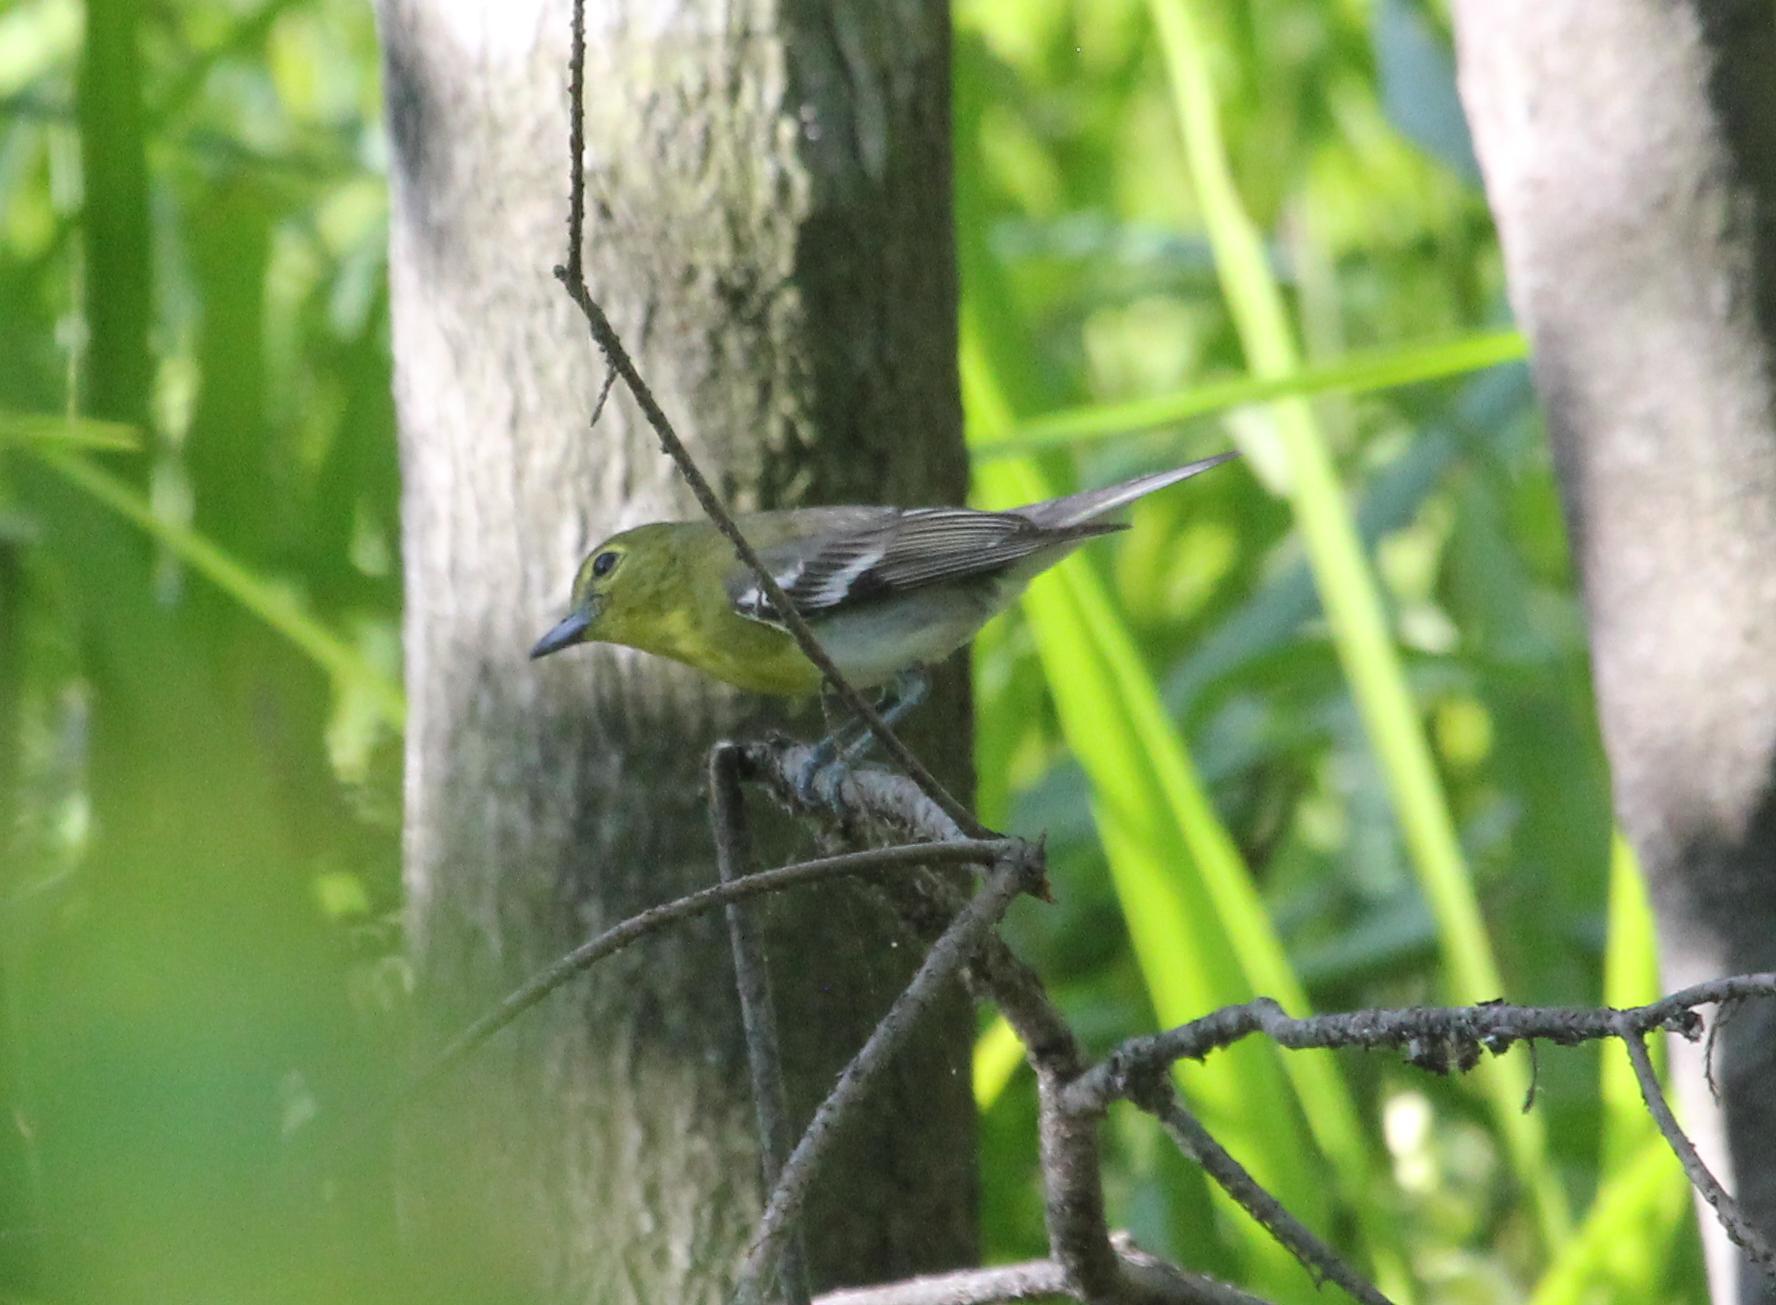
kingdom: Animalia
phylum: Chordata
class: Aves
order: Passeriformes
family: Vireonidae
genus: Vireo
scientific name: Vireo flavifrons
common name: Yellow-throated vireo
